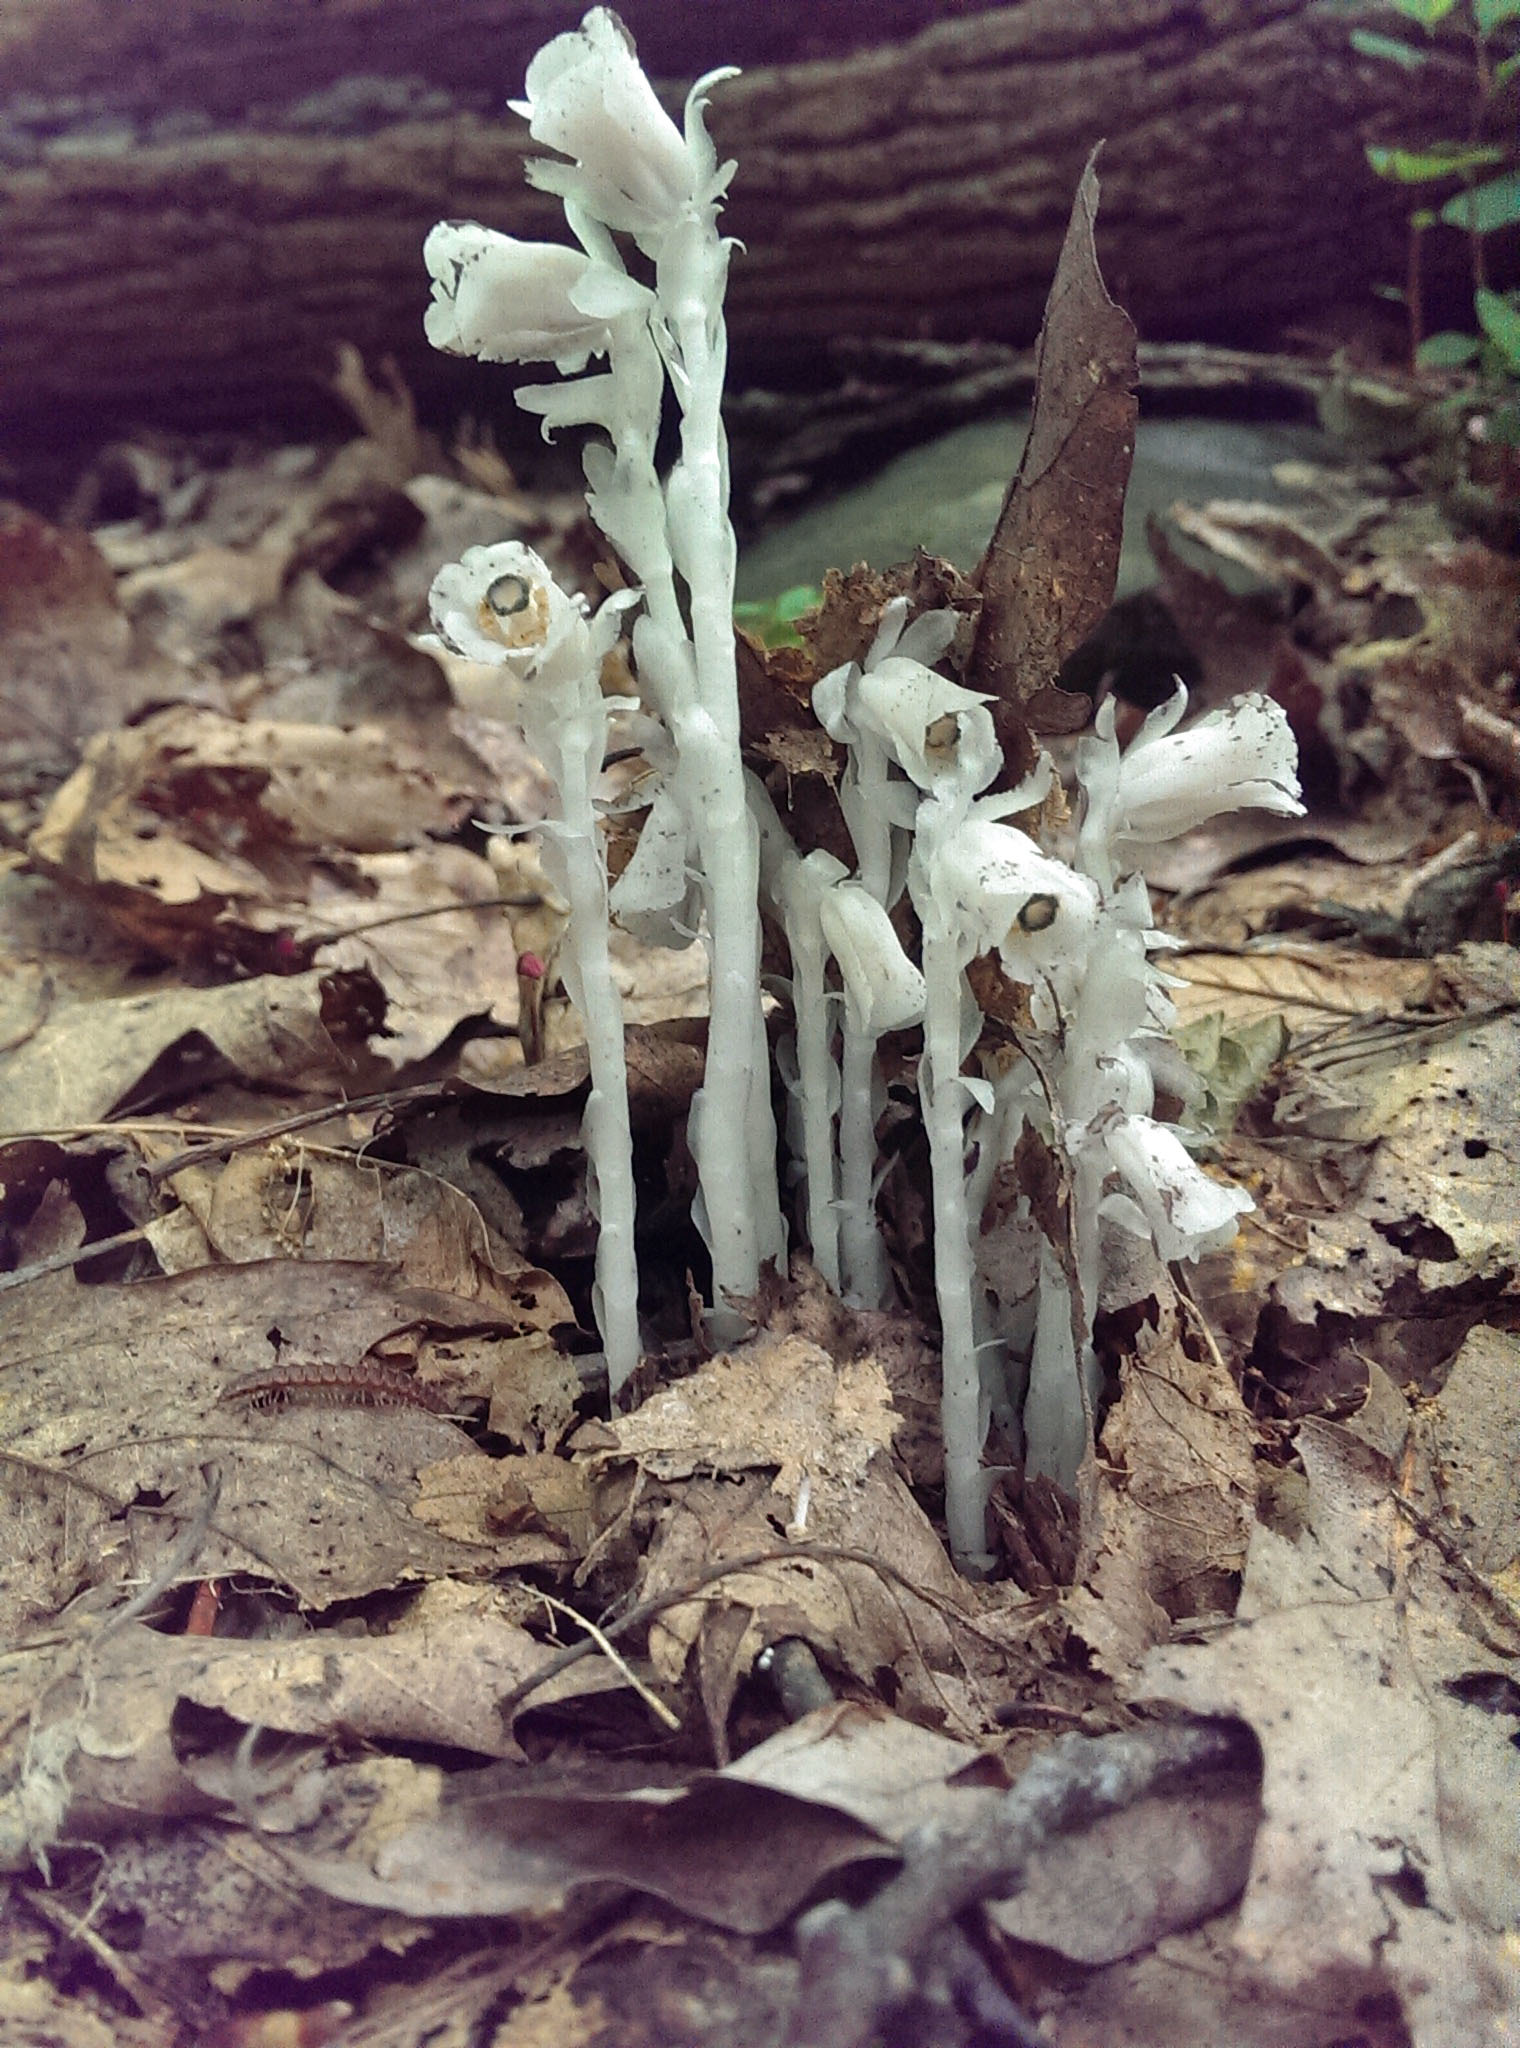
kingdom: Plantae
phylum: Tracheophyta
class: Magnoliopsida
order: Ericales
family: Ericaceae
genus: Monotropa
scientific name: Monotropa uniflora
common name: Convulsion root
